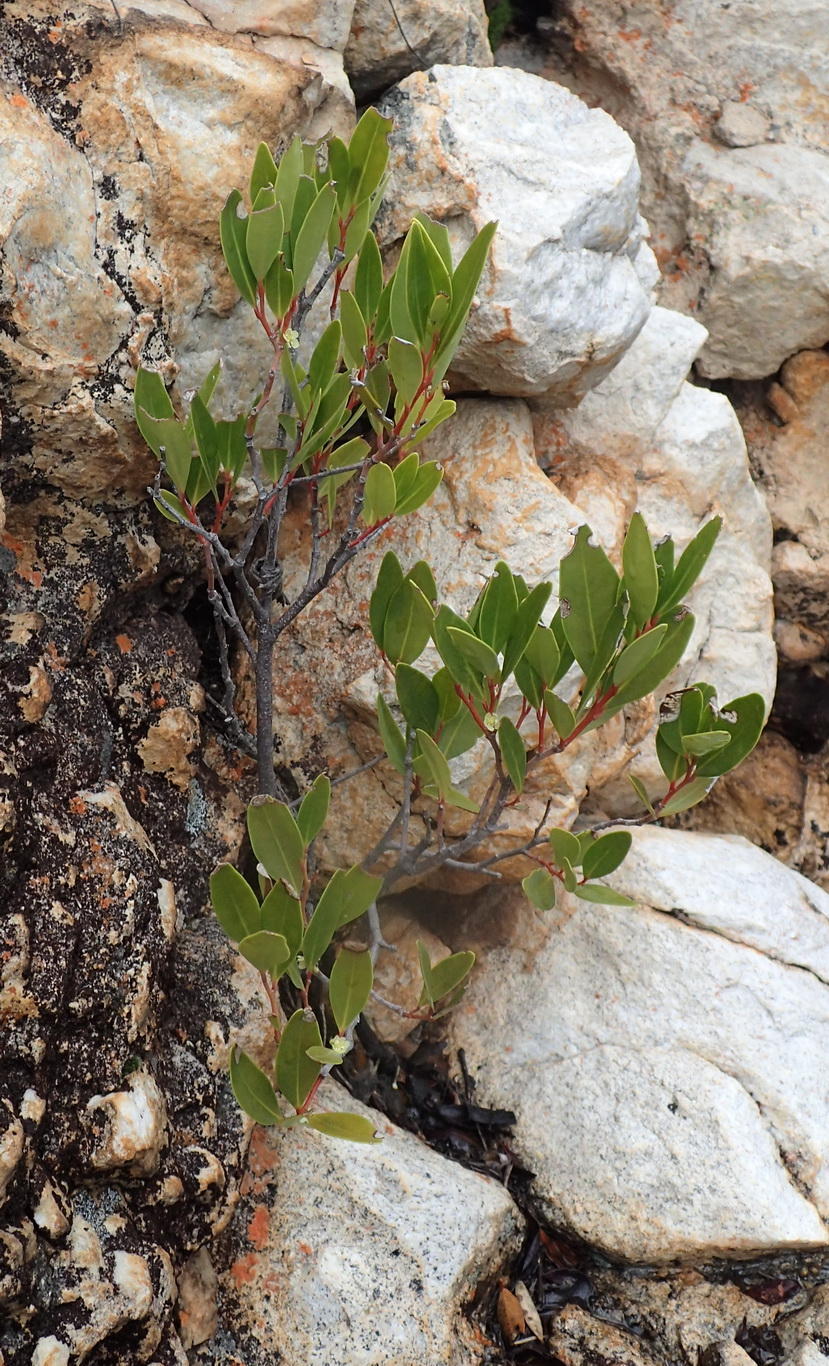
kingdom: Plantae
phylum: Tracheophyta
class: Magnoliopsida
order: Celastrales
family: Celastraceae
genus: Gymnosporia
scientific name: Gymnosporia laurina
